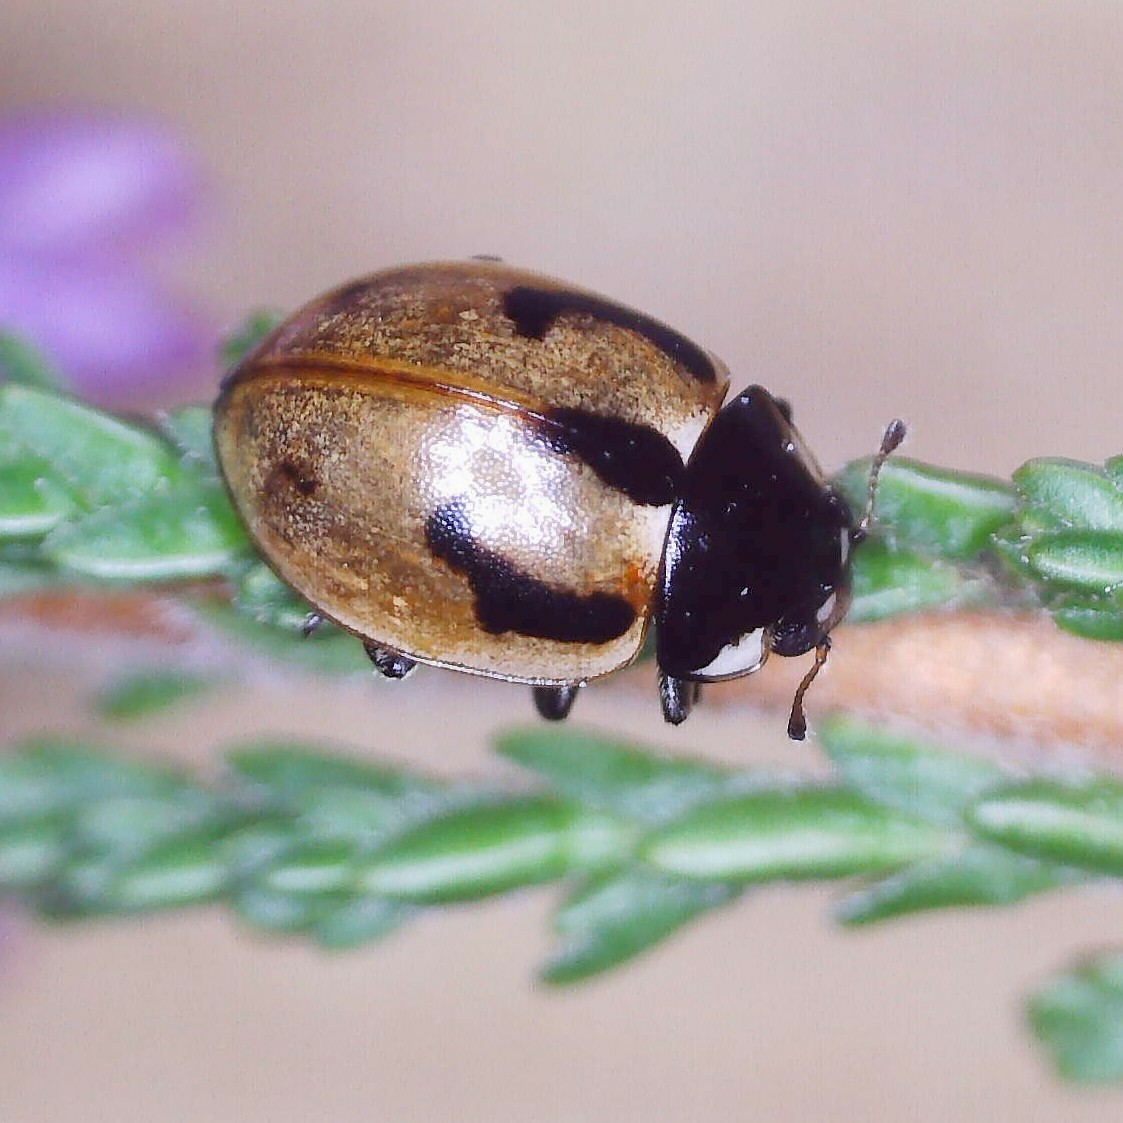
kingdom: Animalia
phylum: Arthropoda
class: Insecta
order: Coleoptera
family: Coccinellidae
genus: Coccinella
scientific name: Coccinella hieroglyphica
